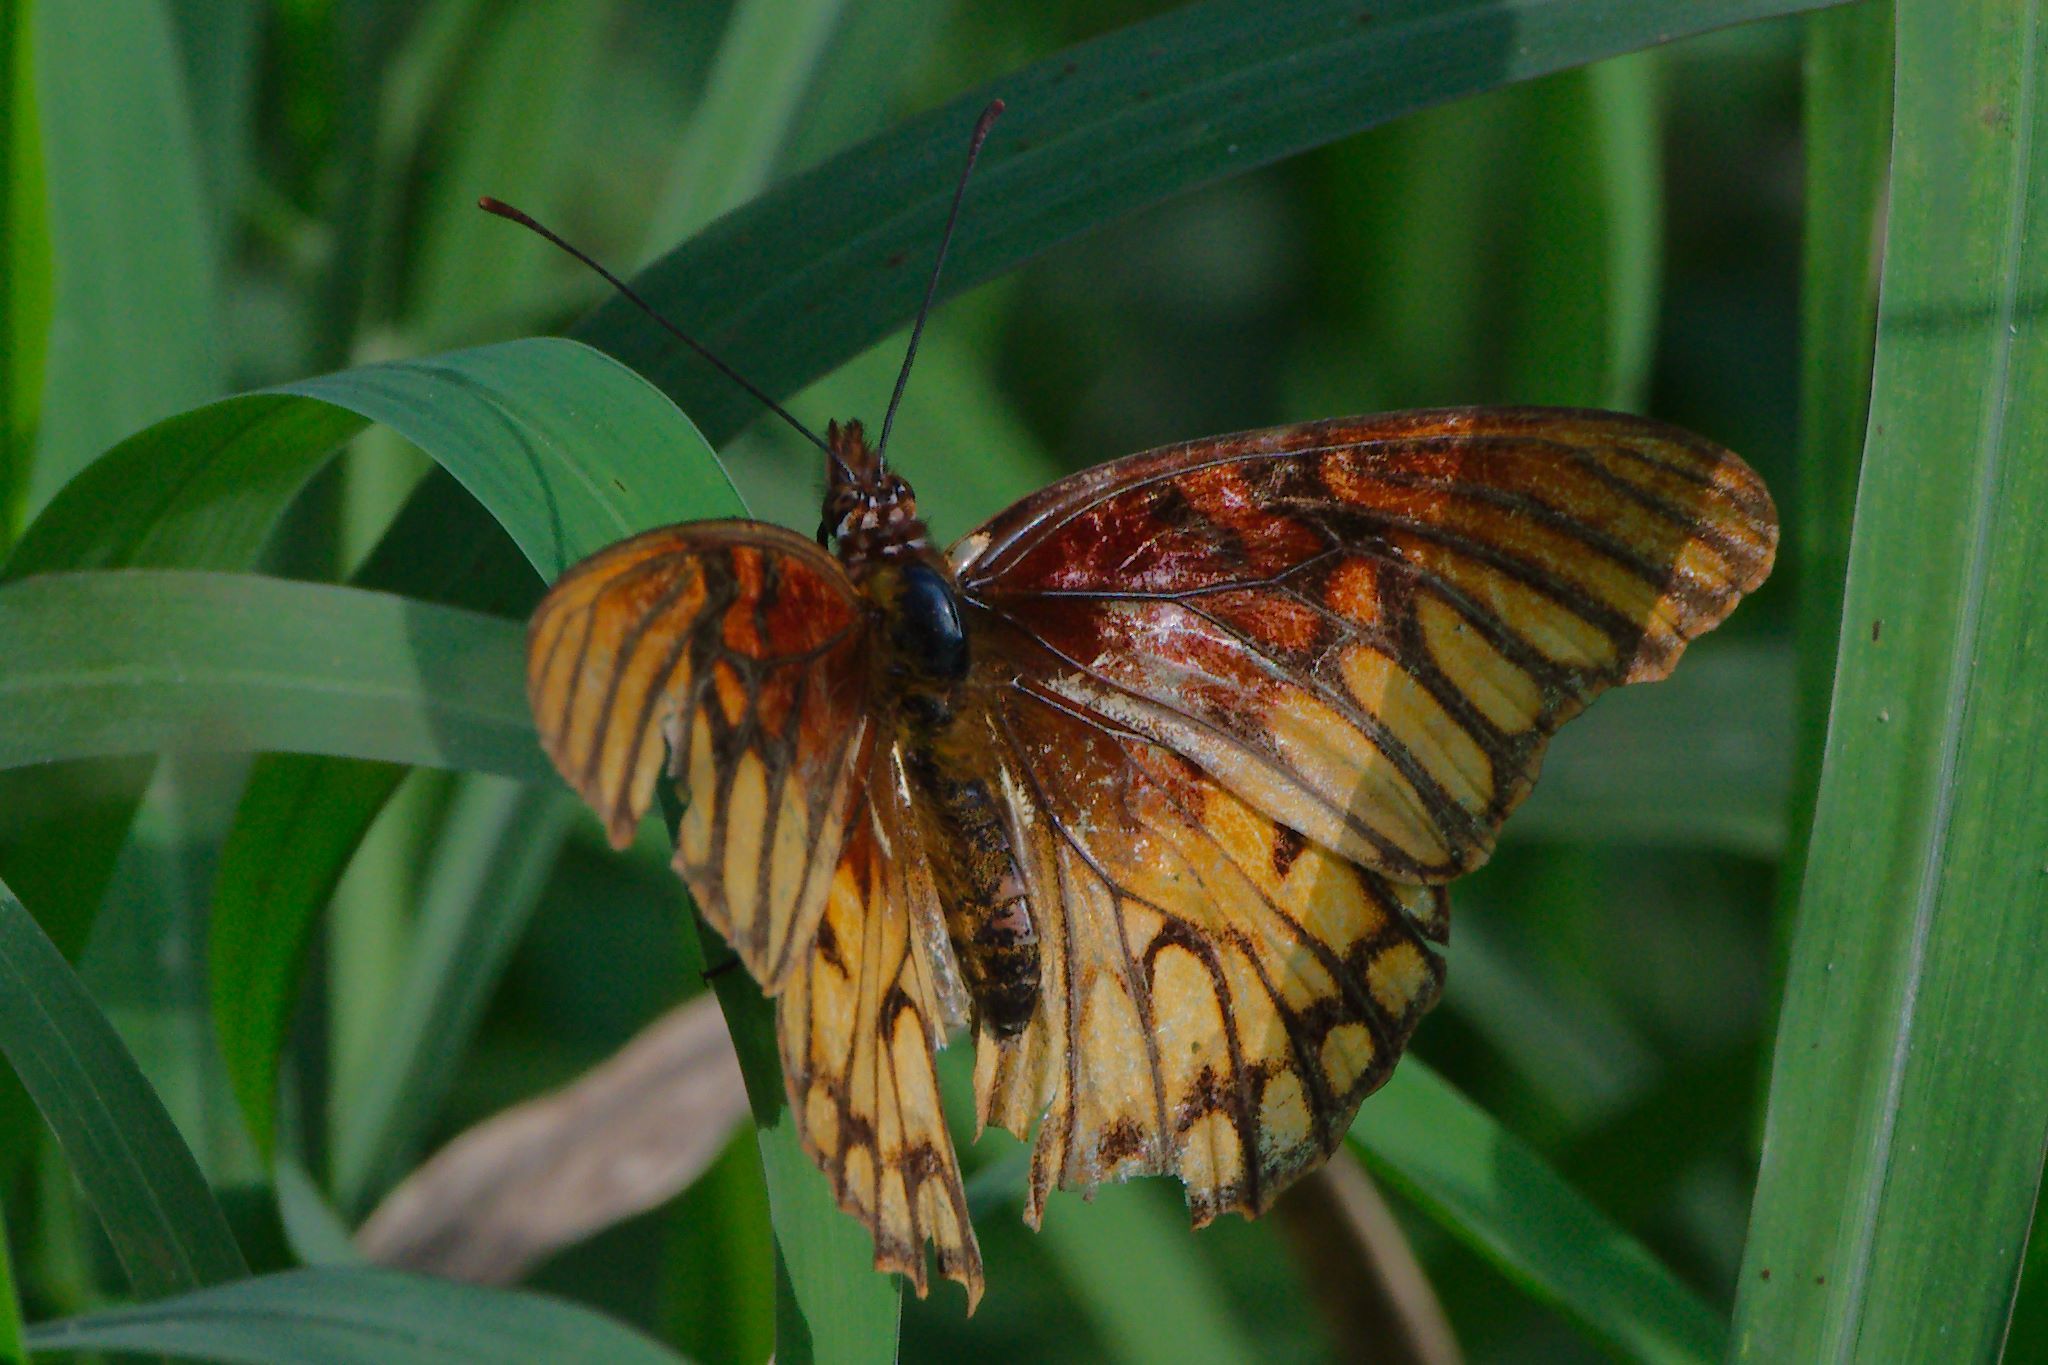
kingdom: Animalia
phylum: Arthropoda
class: Insecta
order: Lepidoptera
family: Nymphalidae
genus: Dione
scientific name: Dione moneta
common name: Mexican silverspot
